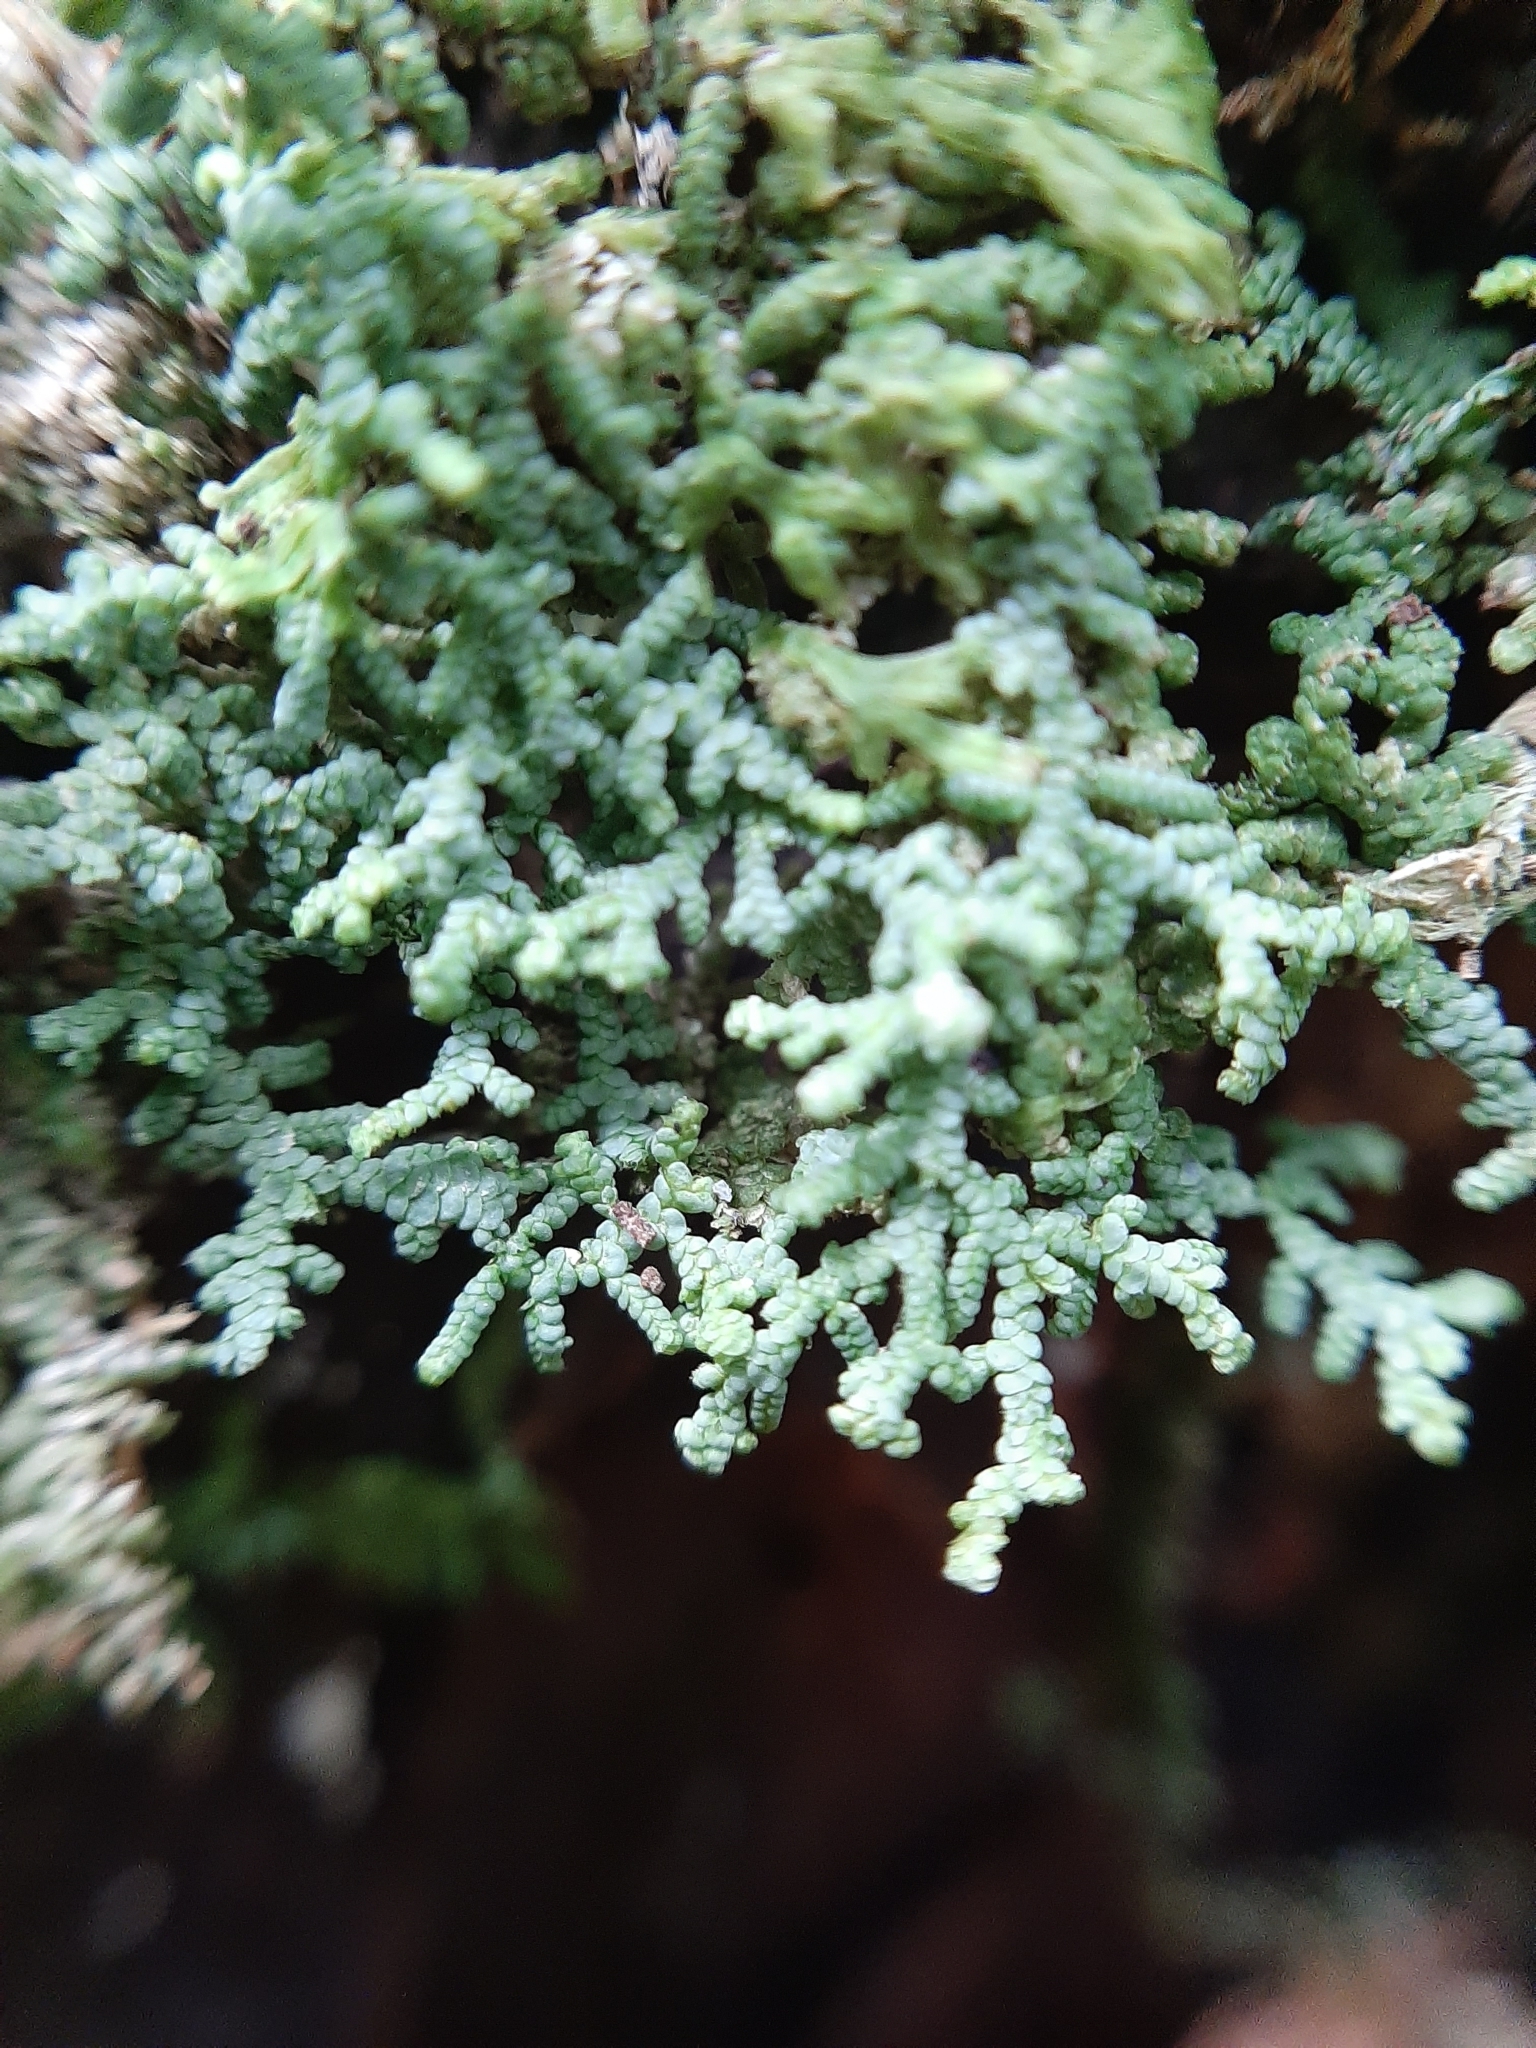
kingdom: Plantae
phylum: Marchantiophyta
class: Jungermanniopsida
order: Porellales
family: Lepidolaenaceae
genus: Lepidolaena
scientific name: Lepidolaena clavigera
